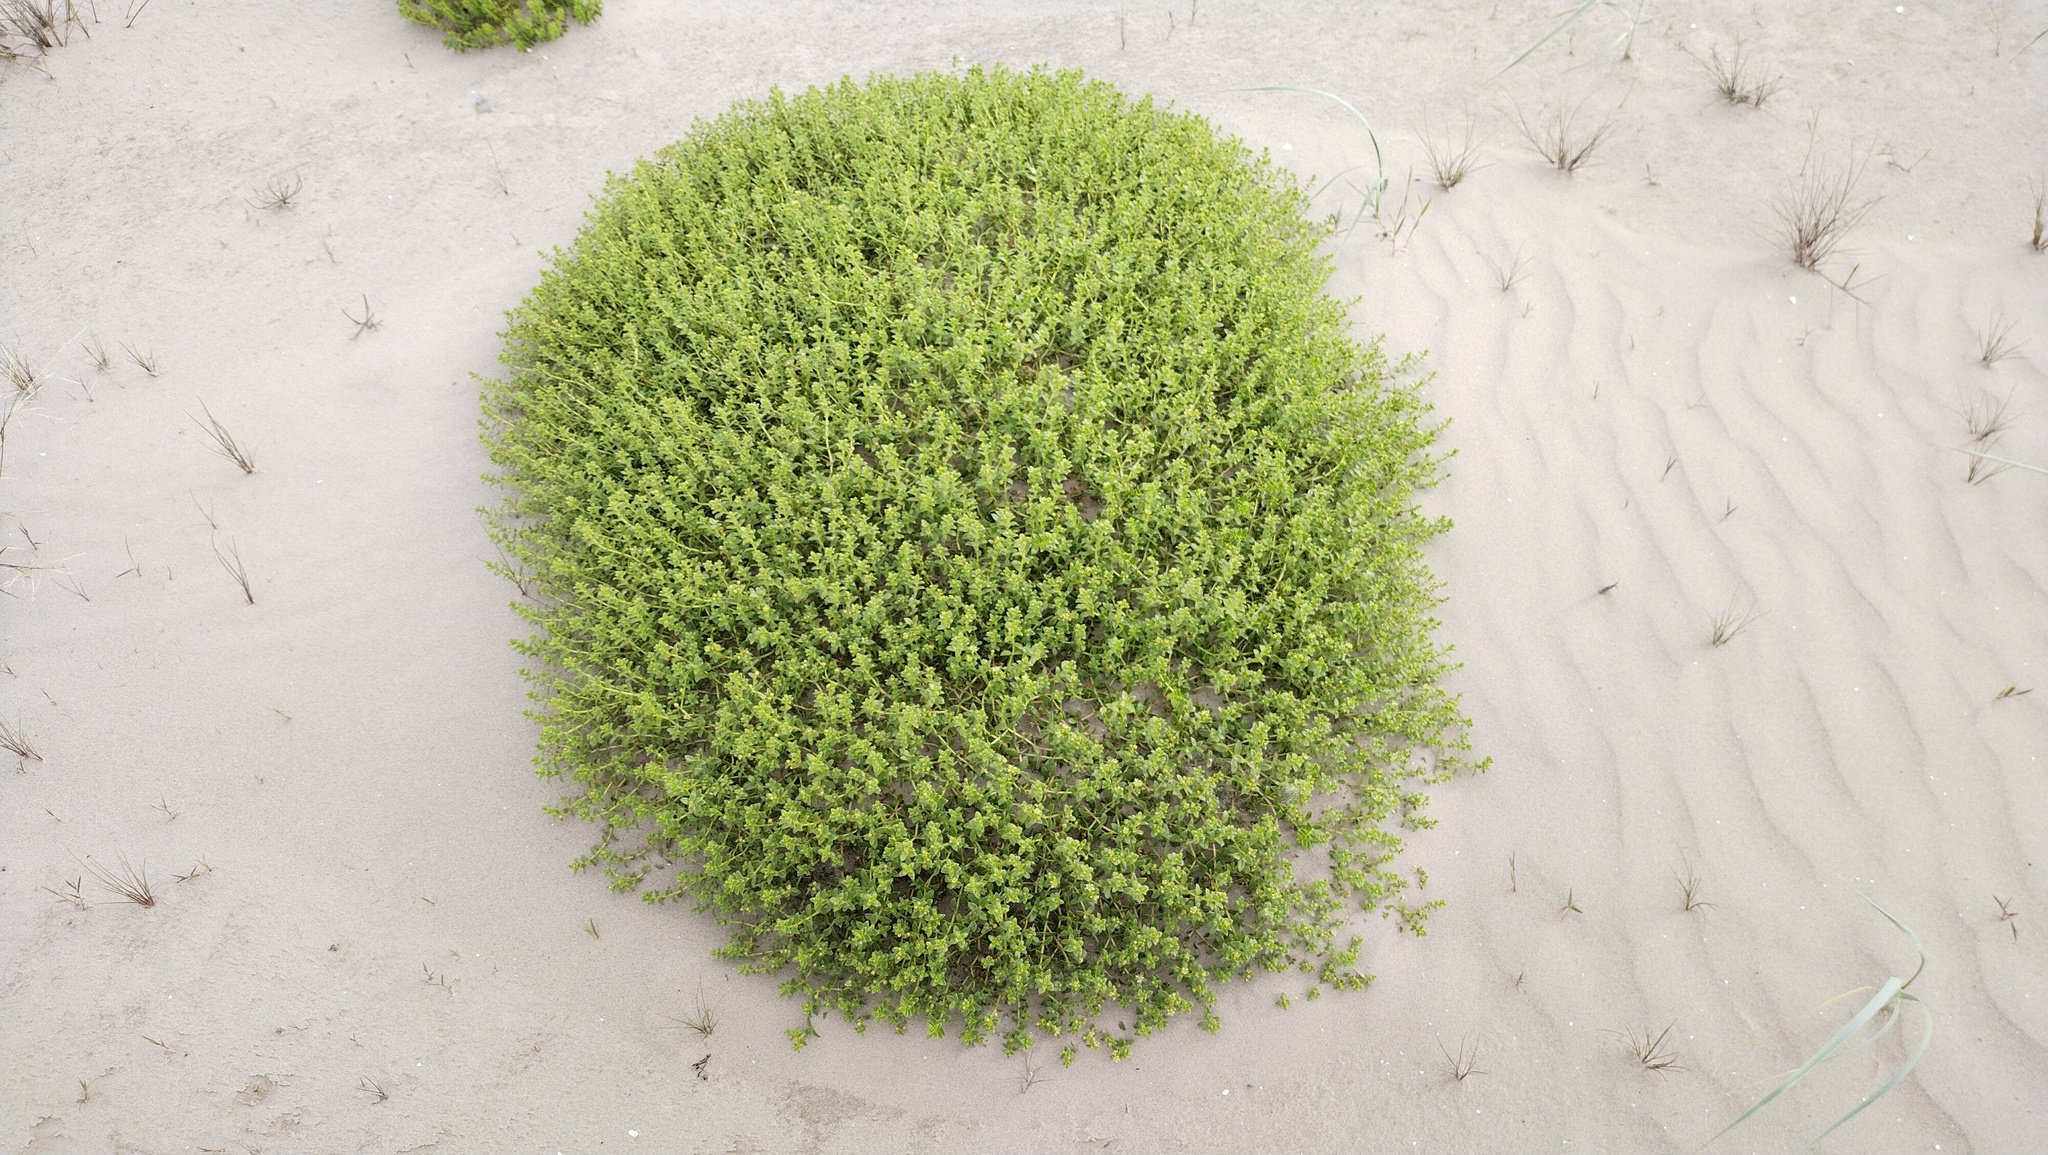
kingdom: Plantae
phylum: Tracheophyta
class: Magnoliopsida
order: Caryophyllales
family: Caryophyllaceae
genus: Honckenya
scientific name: Honckenya peploides
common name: Sea sandwort
